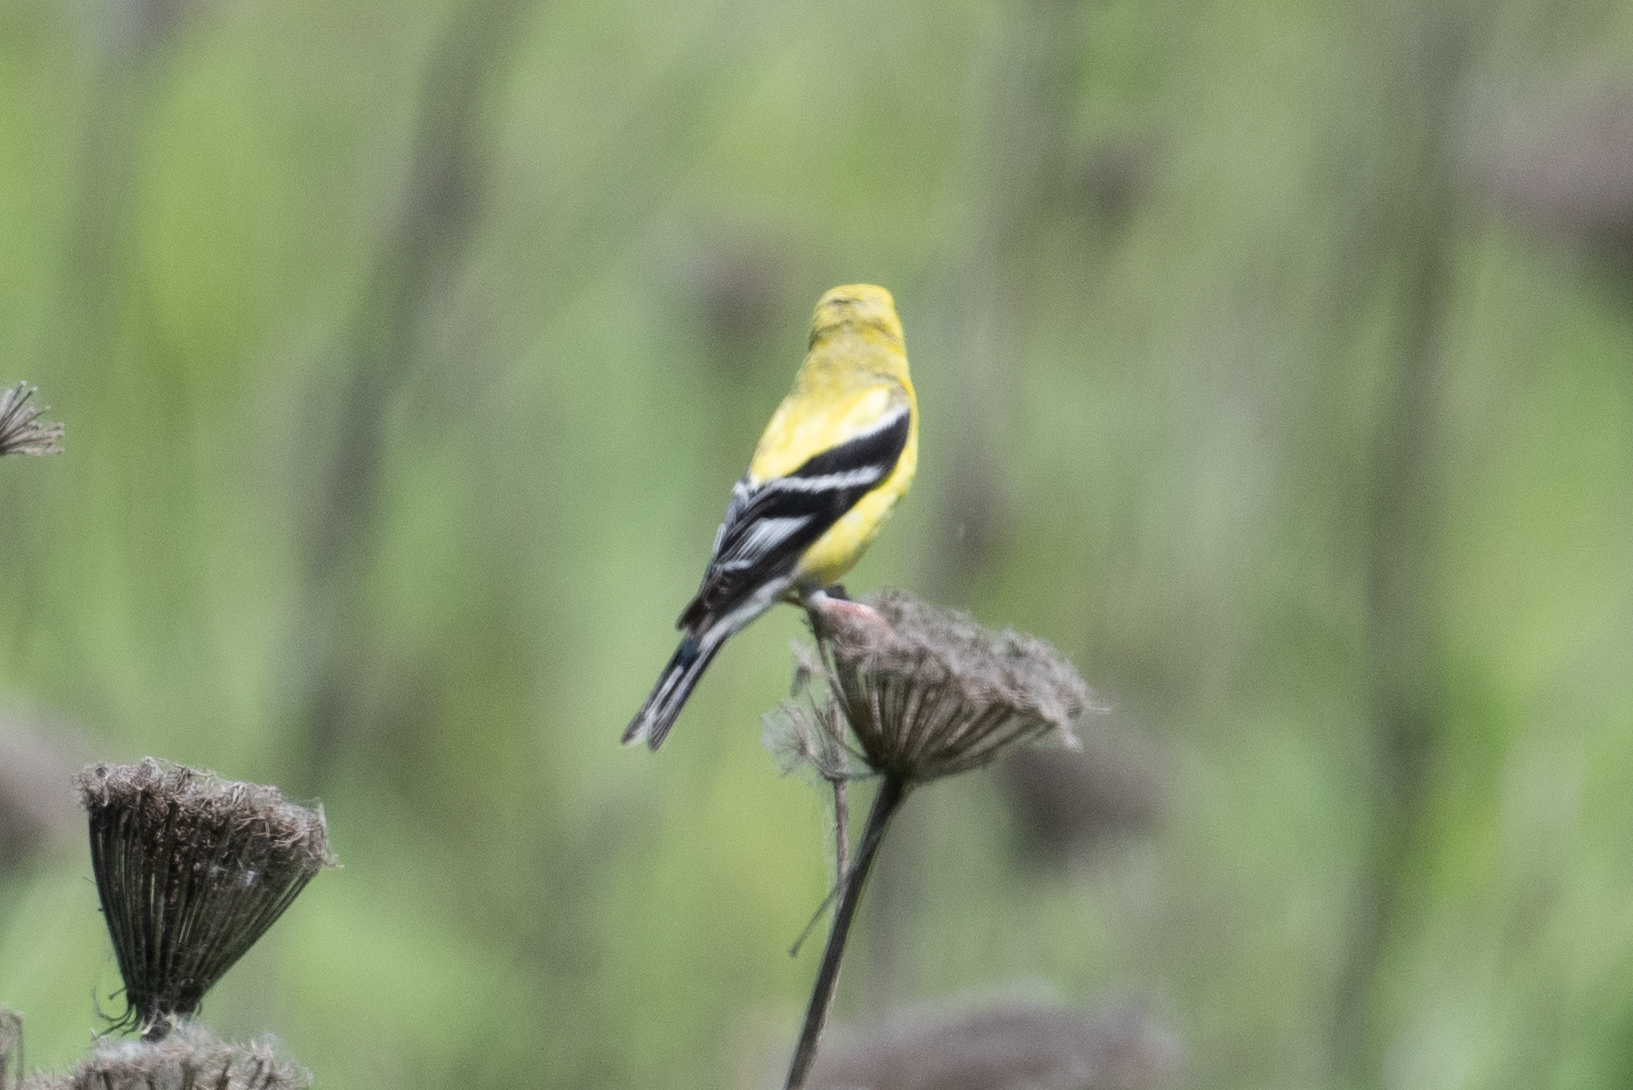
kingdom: Animalia
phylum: Chordata
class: Aves
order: Passeriformes
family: Fringillidae
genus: Spinus
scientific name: Spinus tristis
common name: American goldfinch
